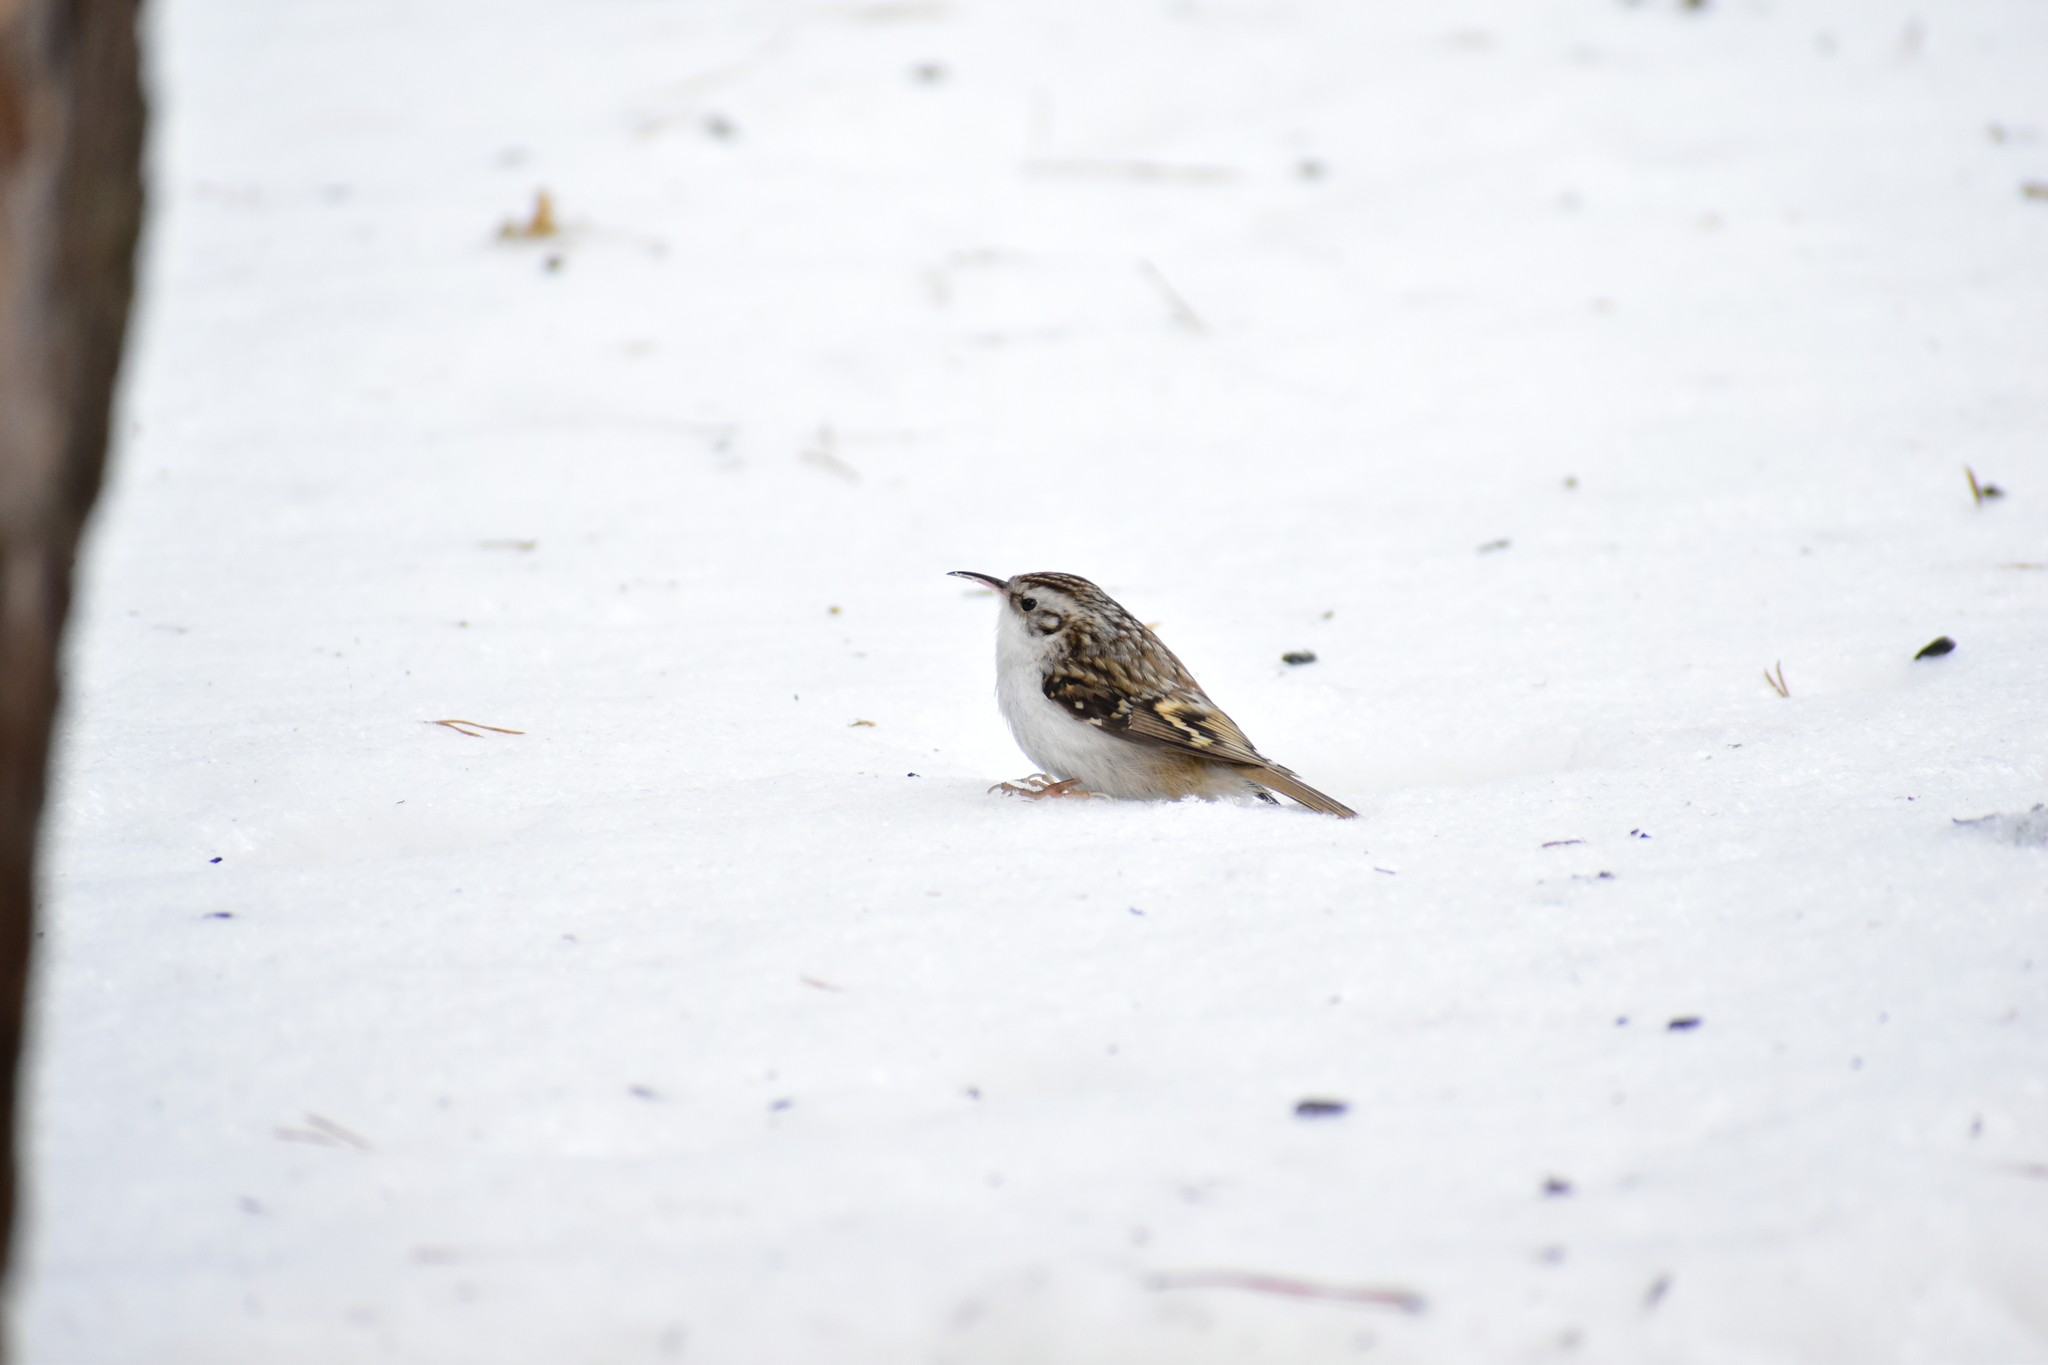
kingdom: Animalia
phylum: Chordata
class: Aves
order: Passeriformes
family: Certhiidae
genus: Certhia
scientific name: Certhia familiaris
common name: Eurasian treecreeper
